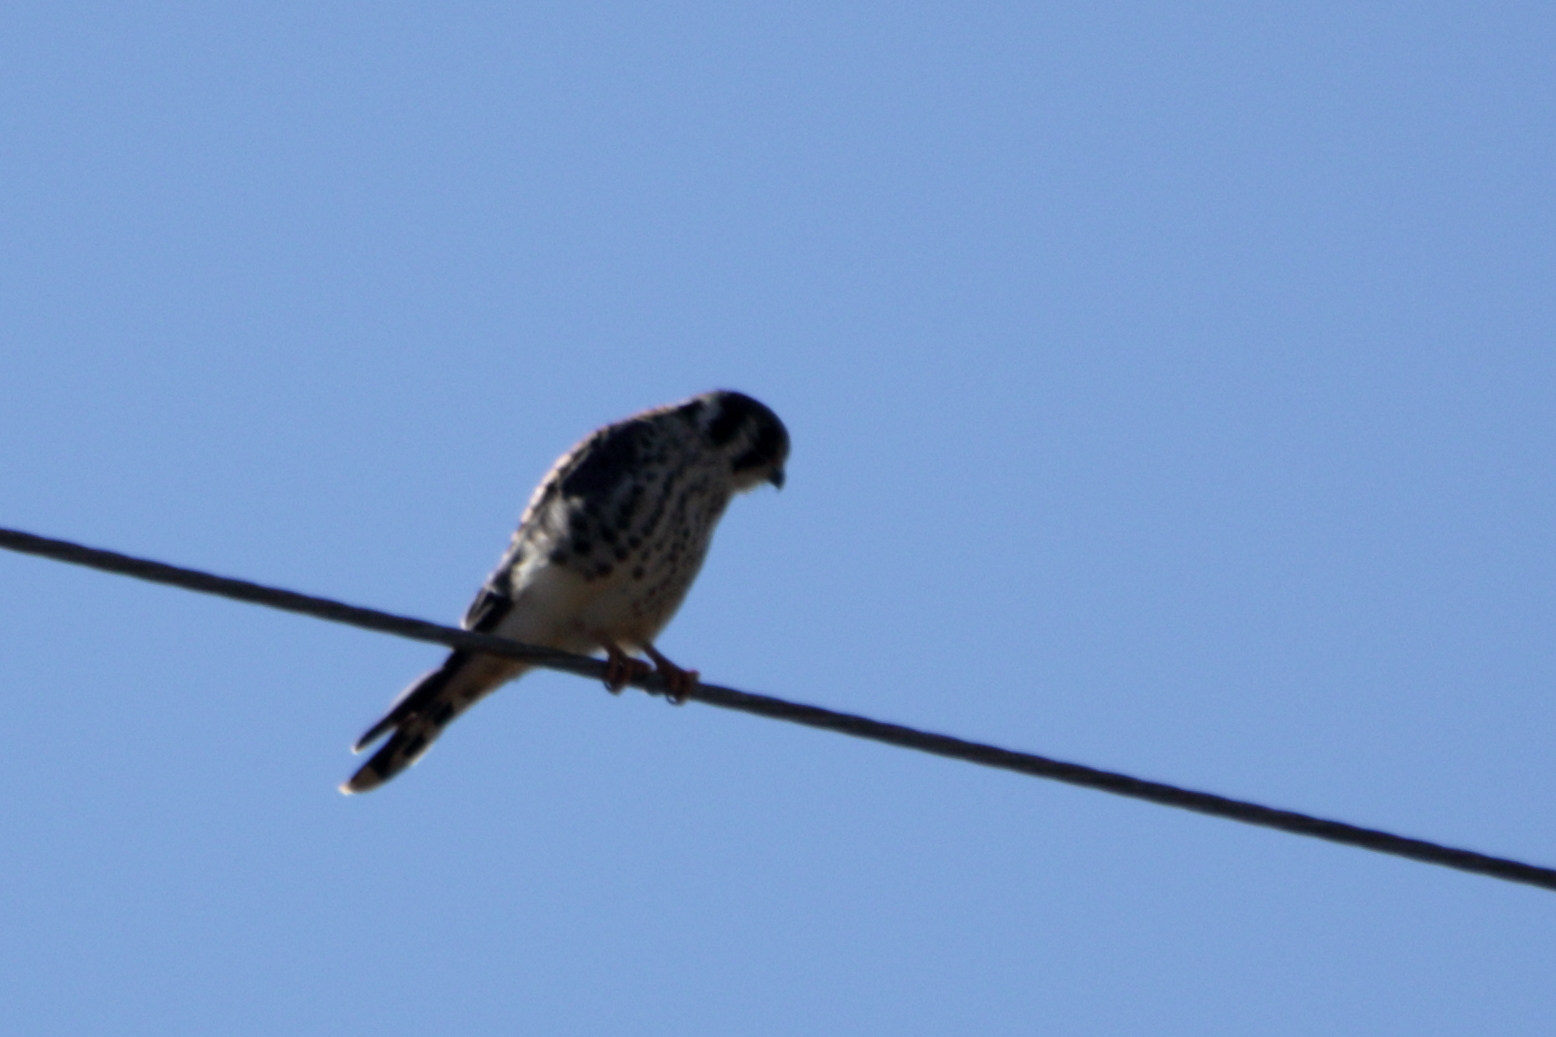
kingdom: Animalia
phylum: Chordata
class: Aves
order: Falconiformes
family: Falconidae
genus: Falco
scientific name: Falco sparverius
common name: American kestrel
